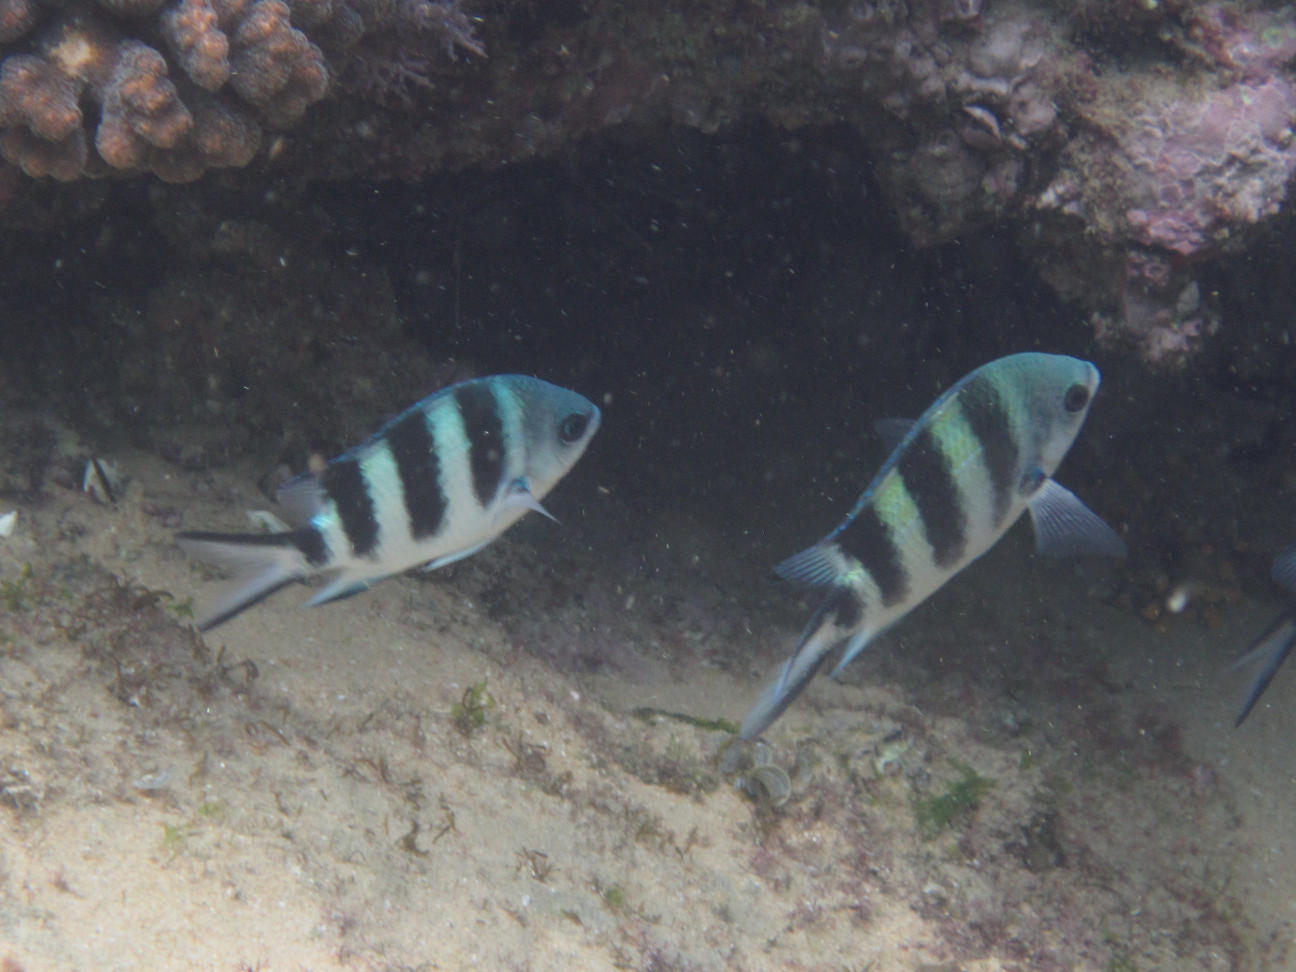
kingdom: Animalia
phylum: Chordata
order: Perciformes
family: Pomacentridae
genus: Abudefduf
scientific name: Abudefduf natalensis
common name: Natal sergeant
